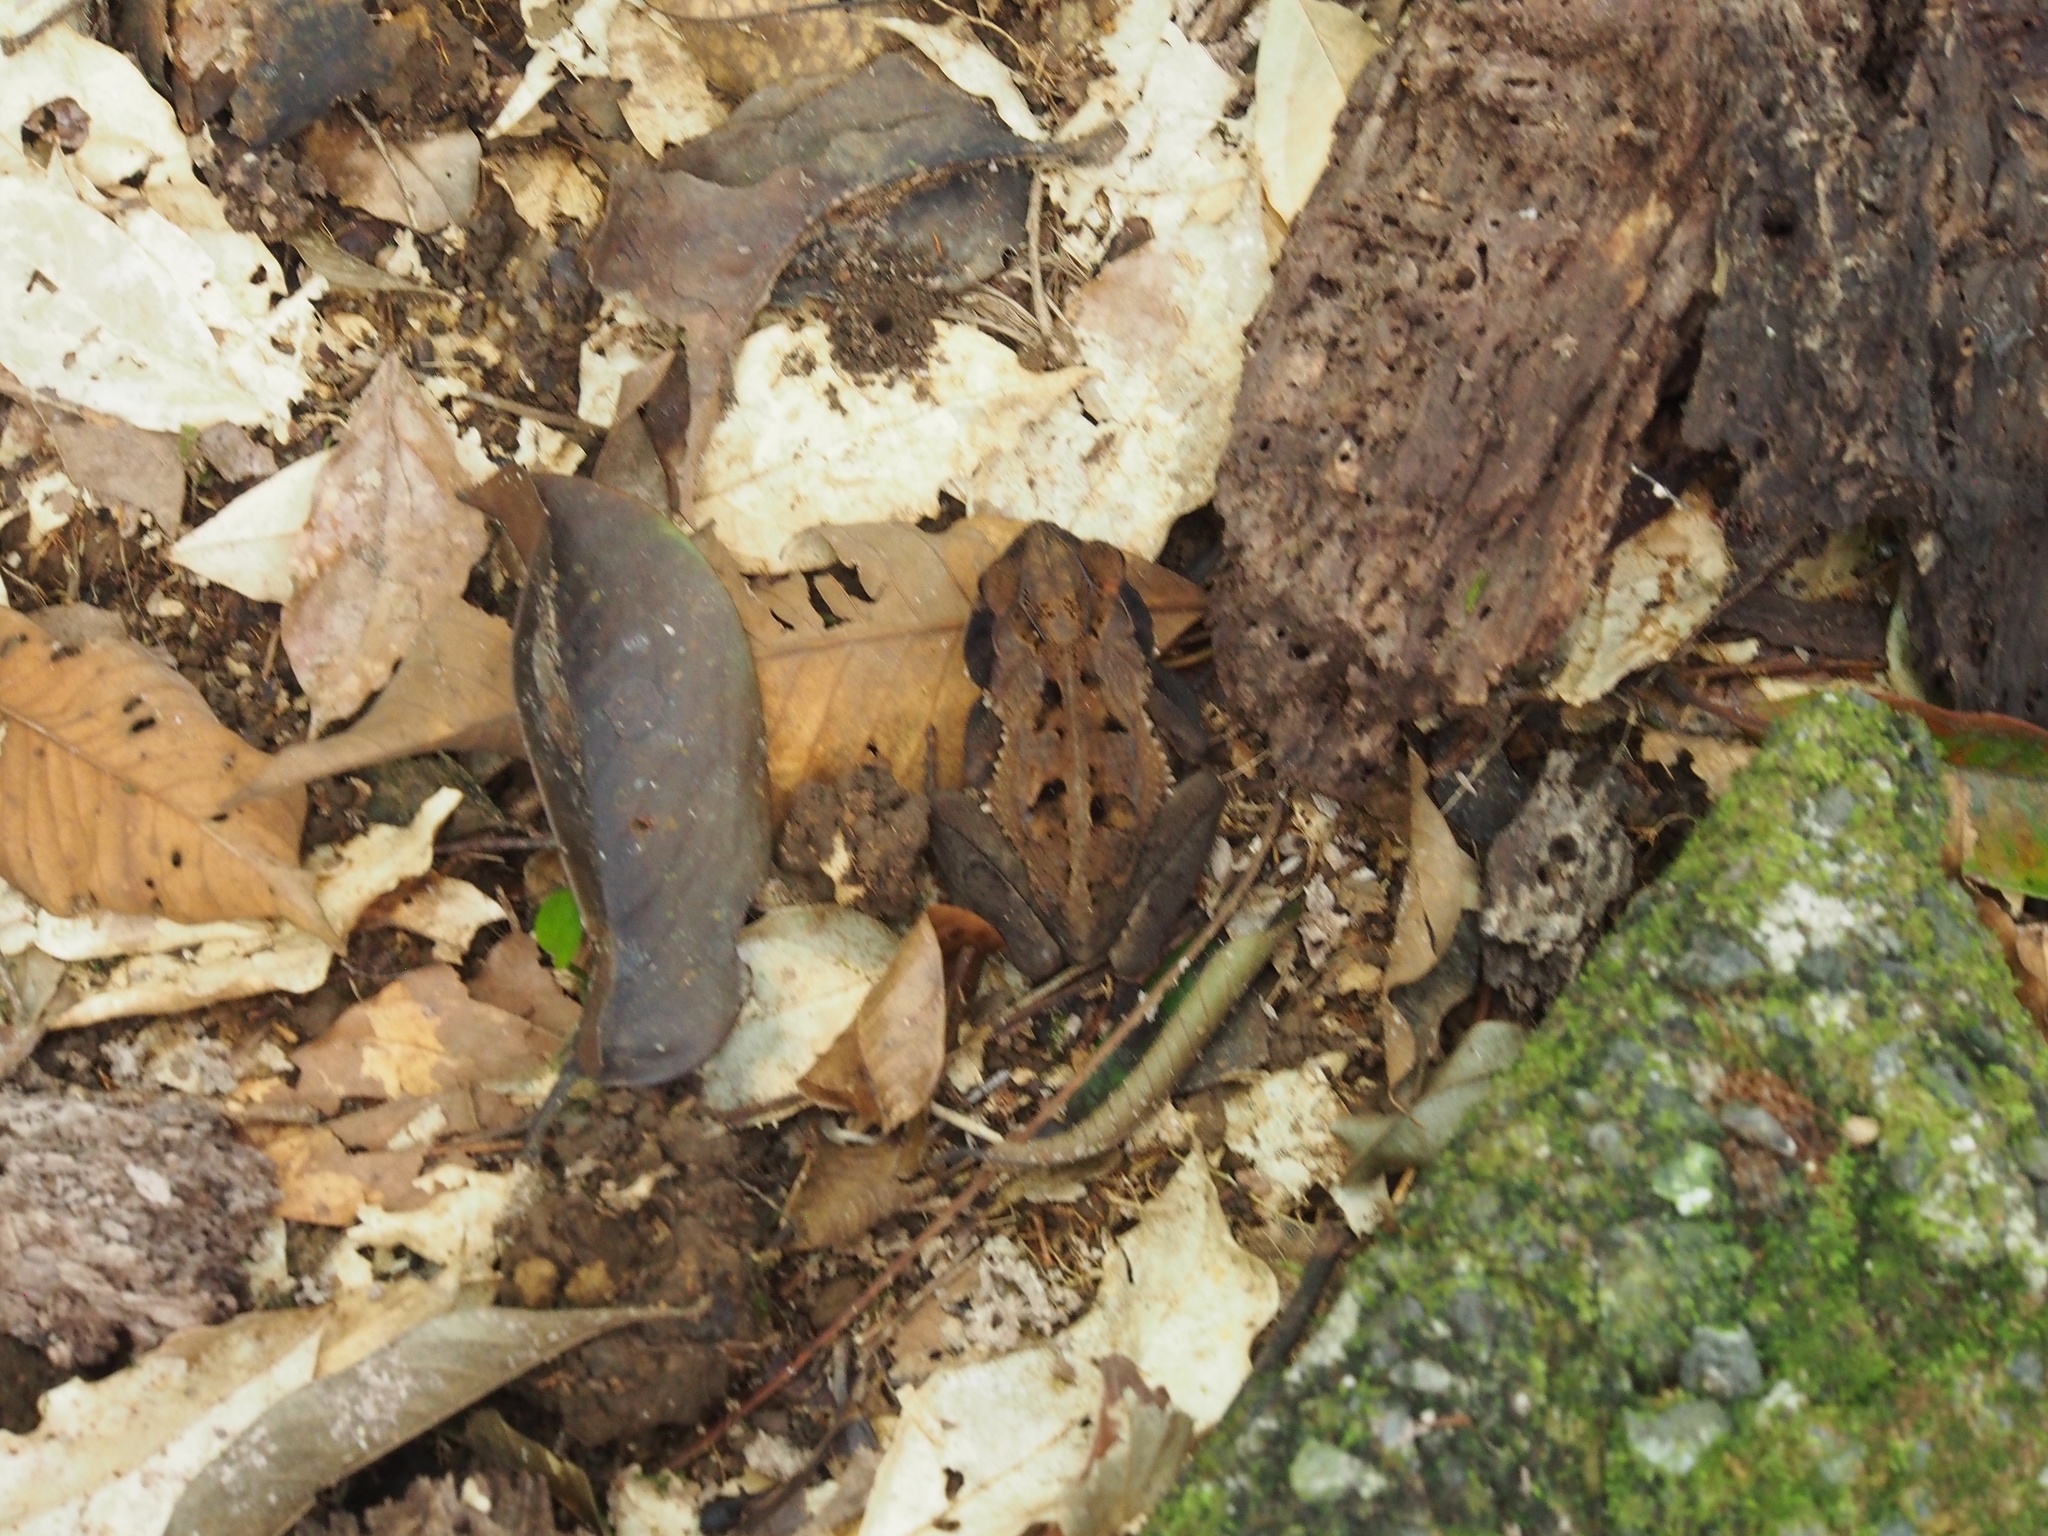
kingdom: Animalia
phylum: Chordata
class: Amphibia
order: Anura
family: Bufonidae
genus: Incilius
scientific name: Incilius melanochlorus
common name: Dark green toad
